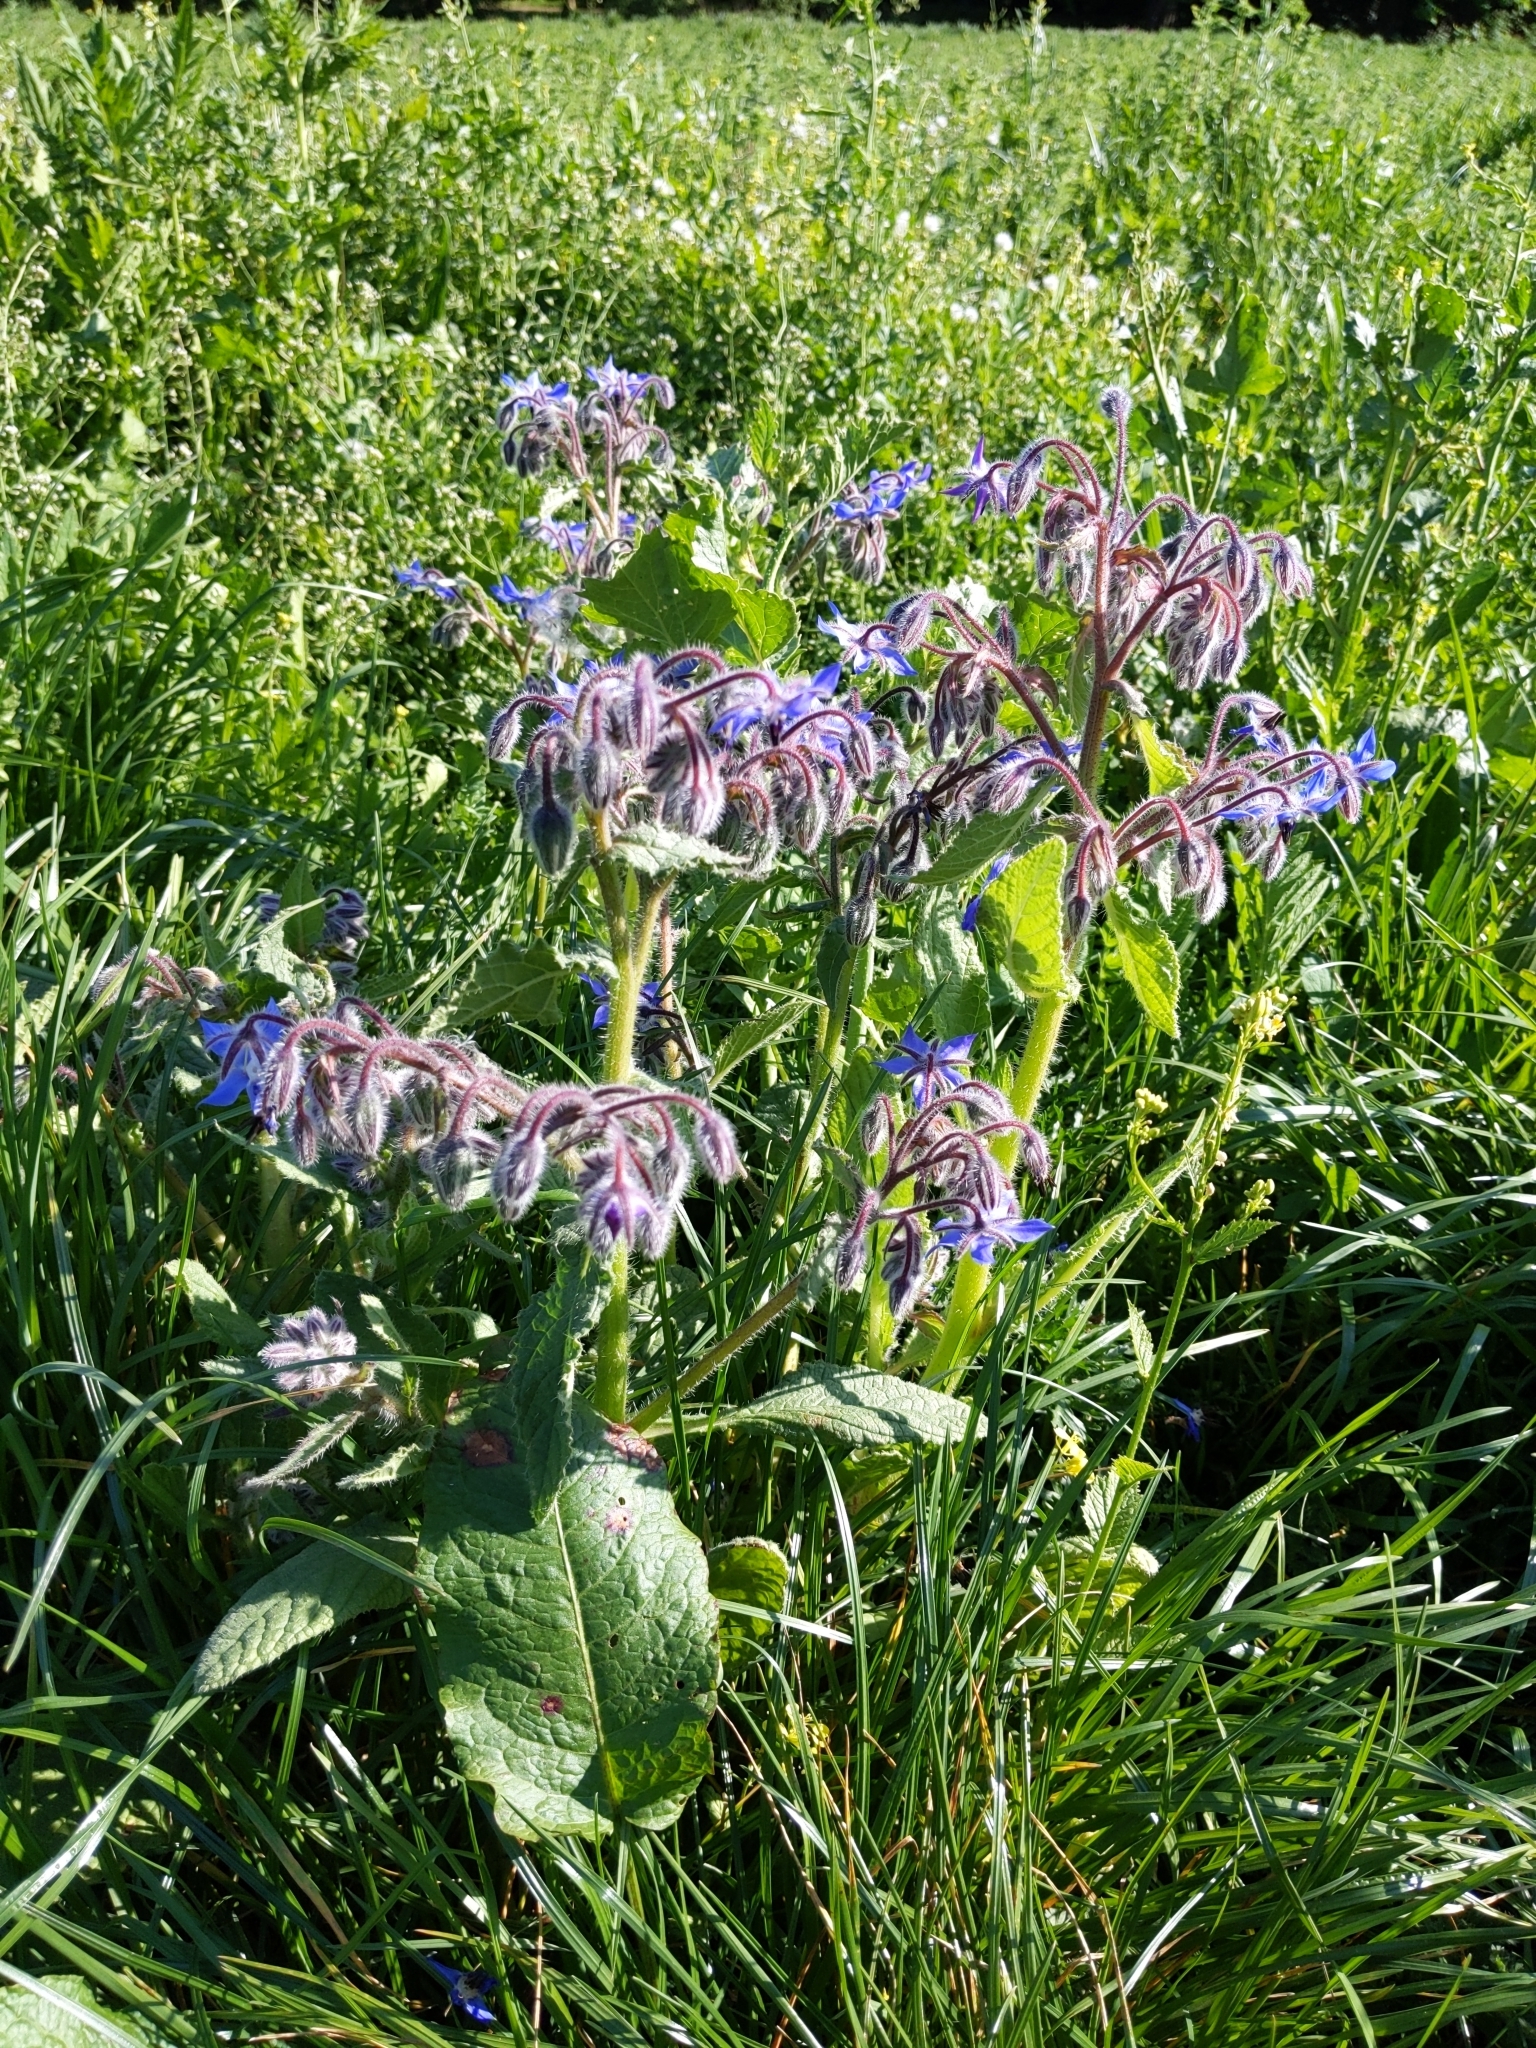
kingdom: Plantae
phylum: Tracheophyta
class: Magnoliopsida
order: Boraginales
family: Boraginaceae
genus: Borago
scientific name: Borago officinalis
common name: Borage
